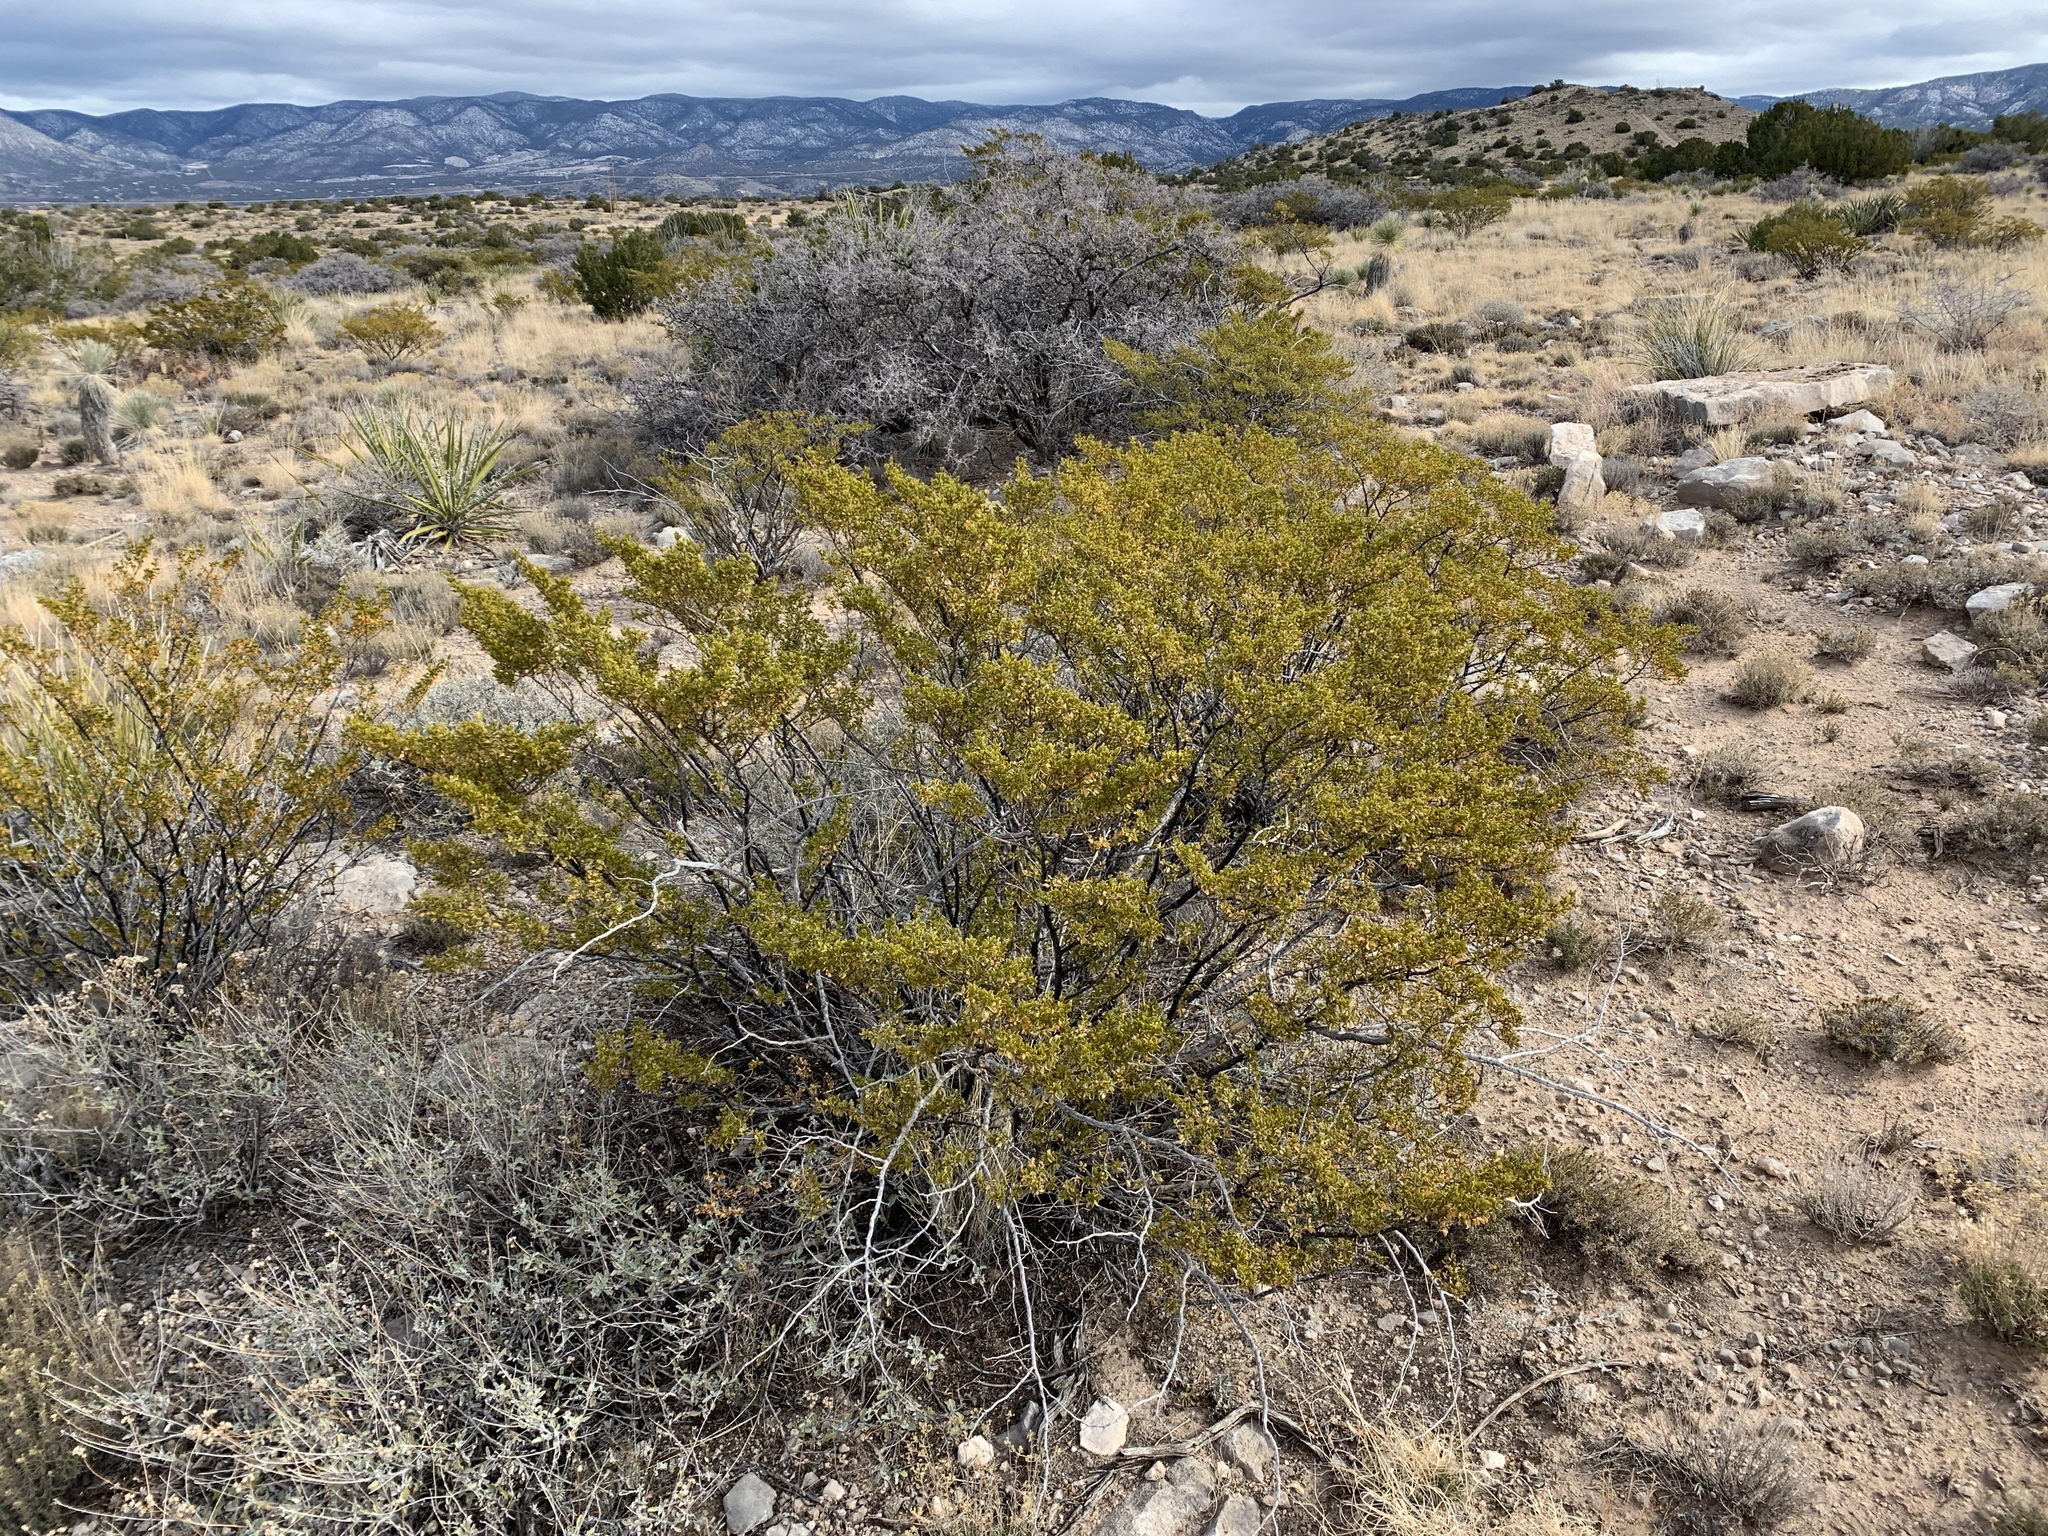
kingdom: Plantae
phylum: Tracheophyta
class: Magnoliopsida
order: Zygophyllales
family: Zygophyllaceae
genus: Larrea
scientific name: Larrea tridentata
